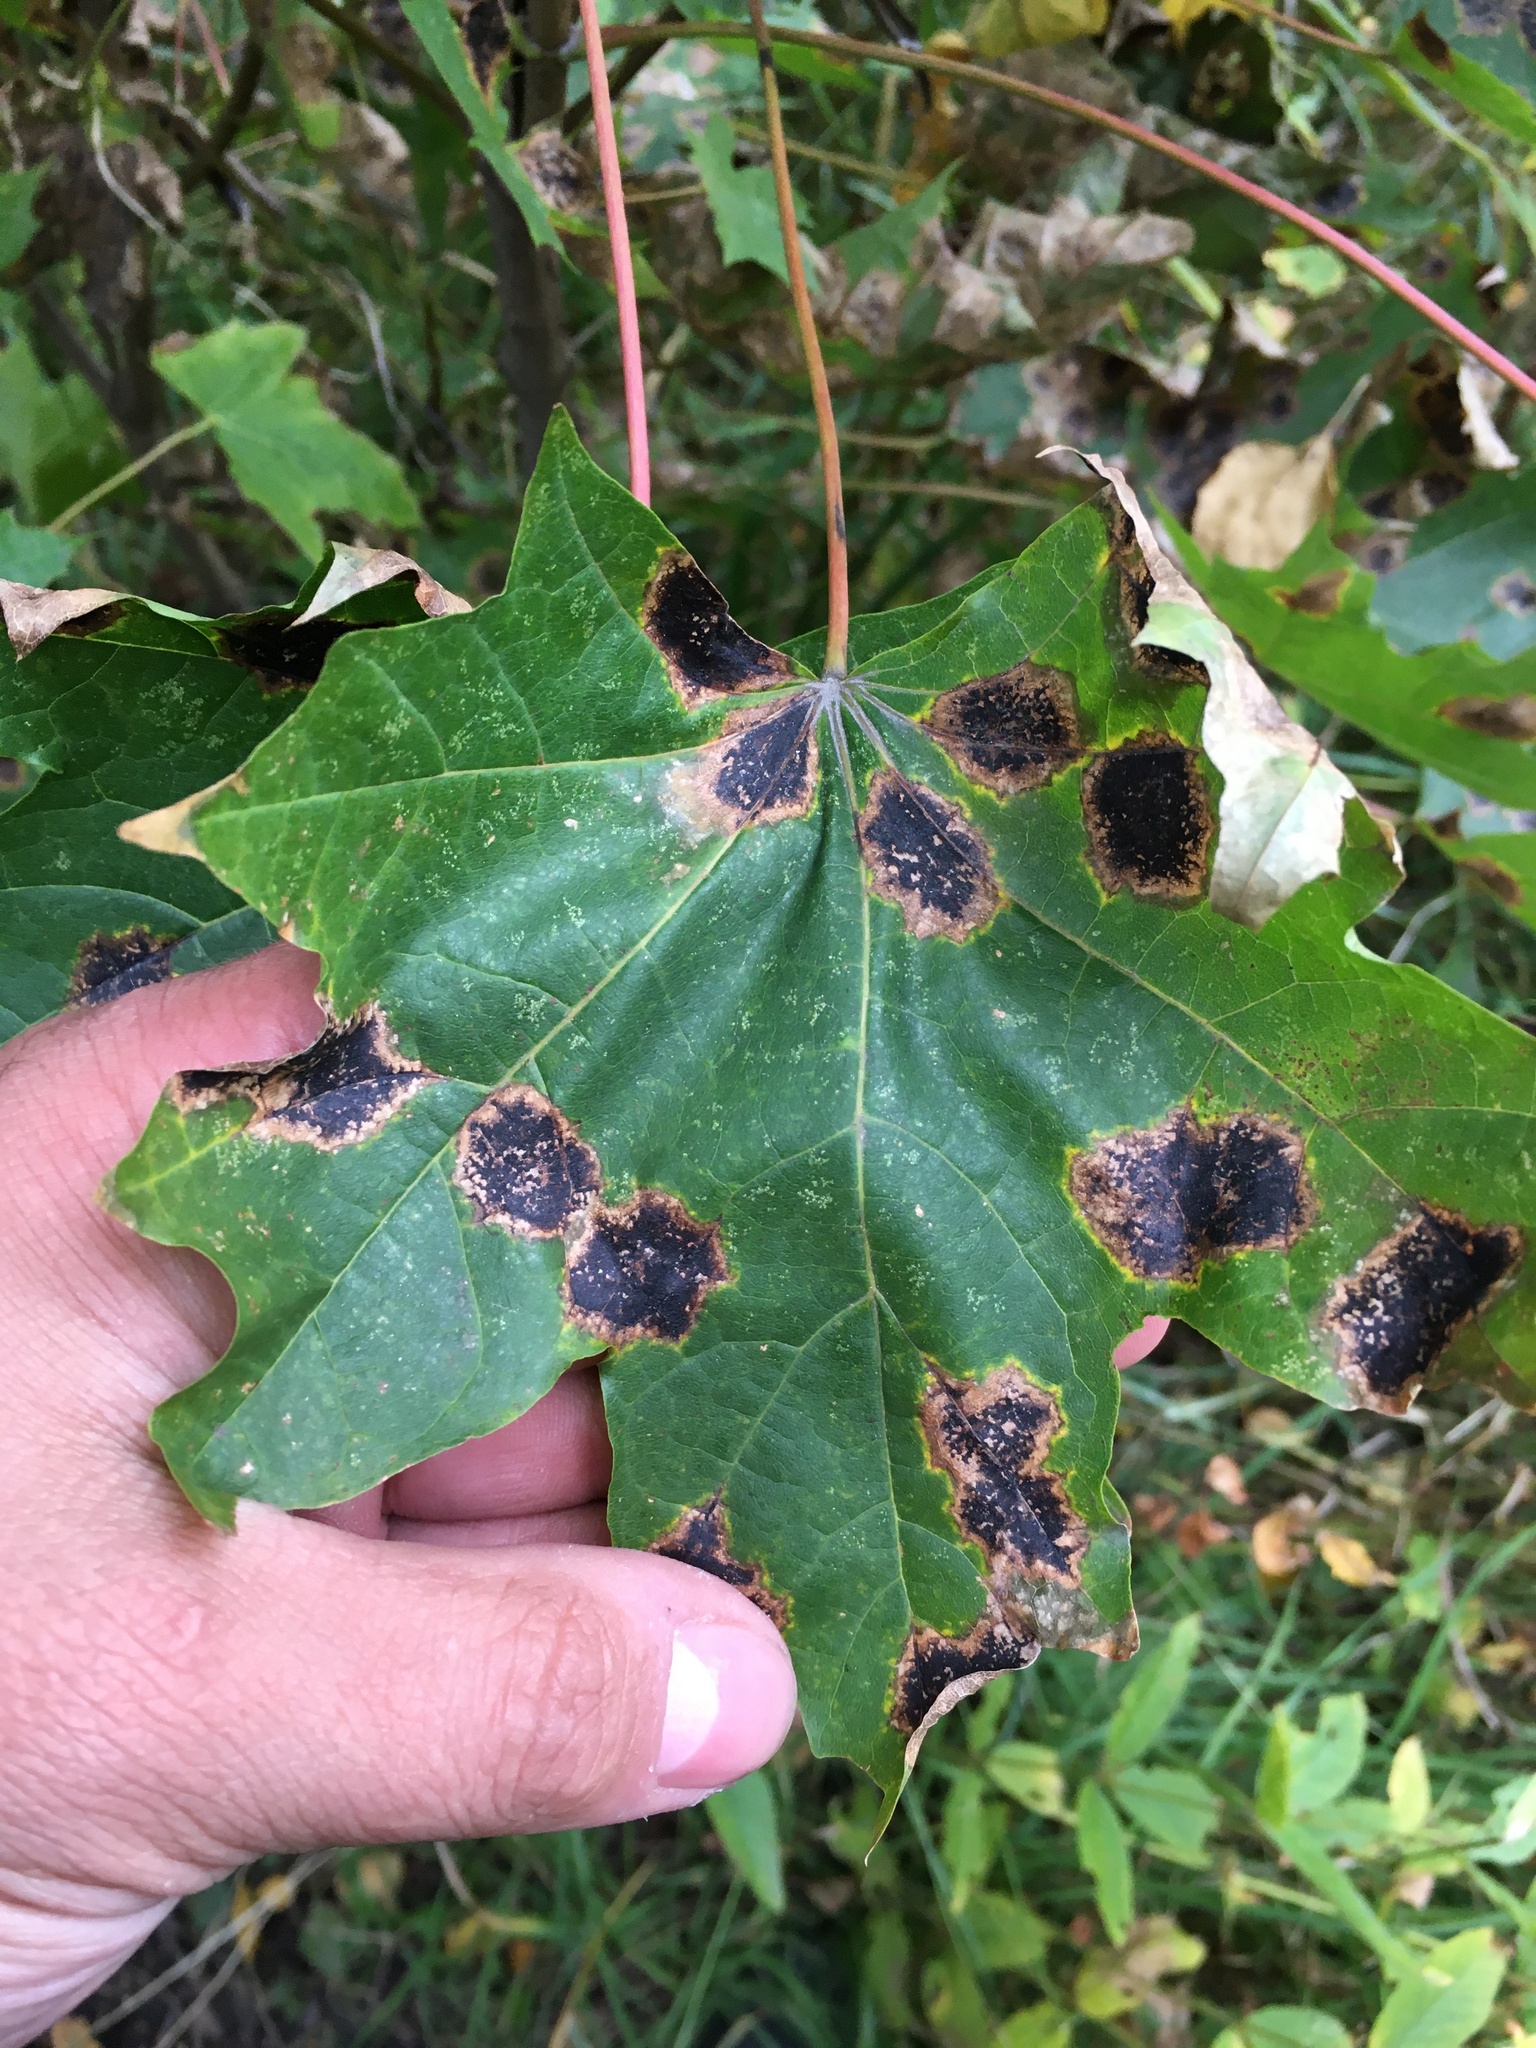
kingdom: Plantae
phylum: Tracheophyta
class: Magnoliopsida
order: Sapindales
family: Sapindaceae
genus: Acer
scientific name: Acer platanoides
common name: Norway maple
